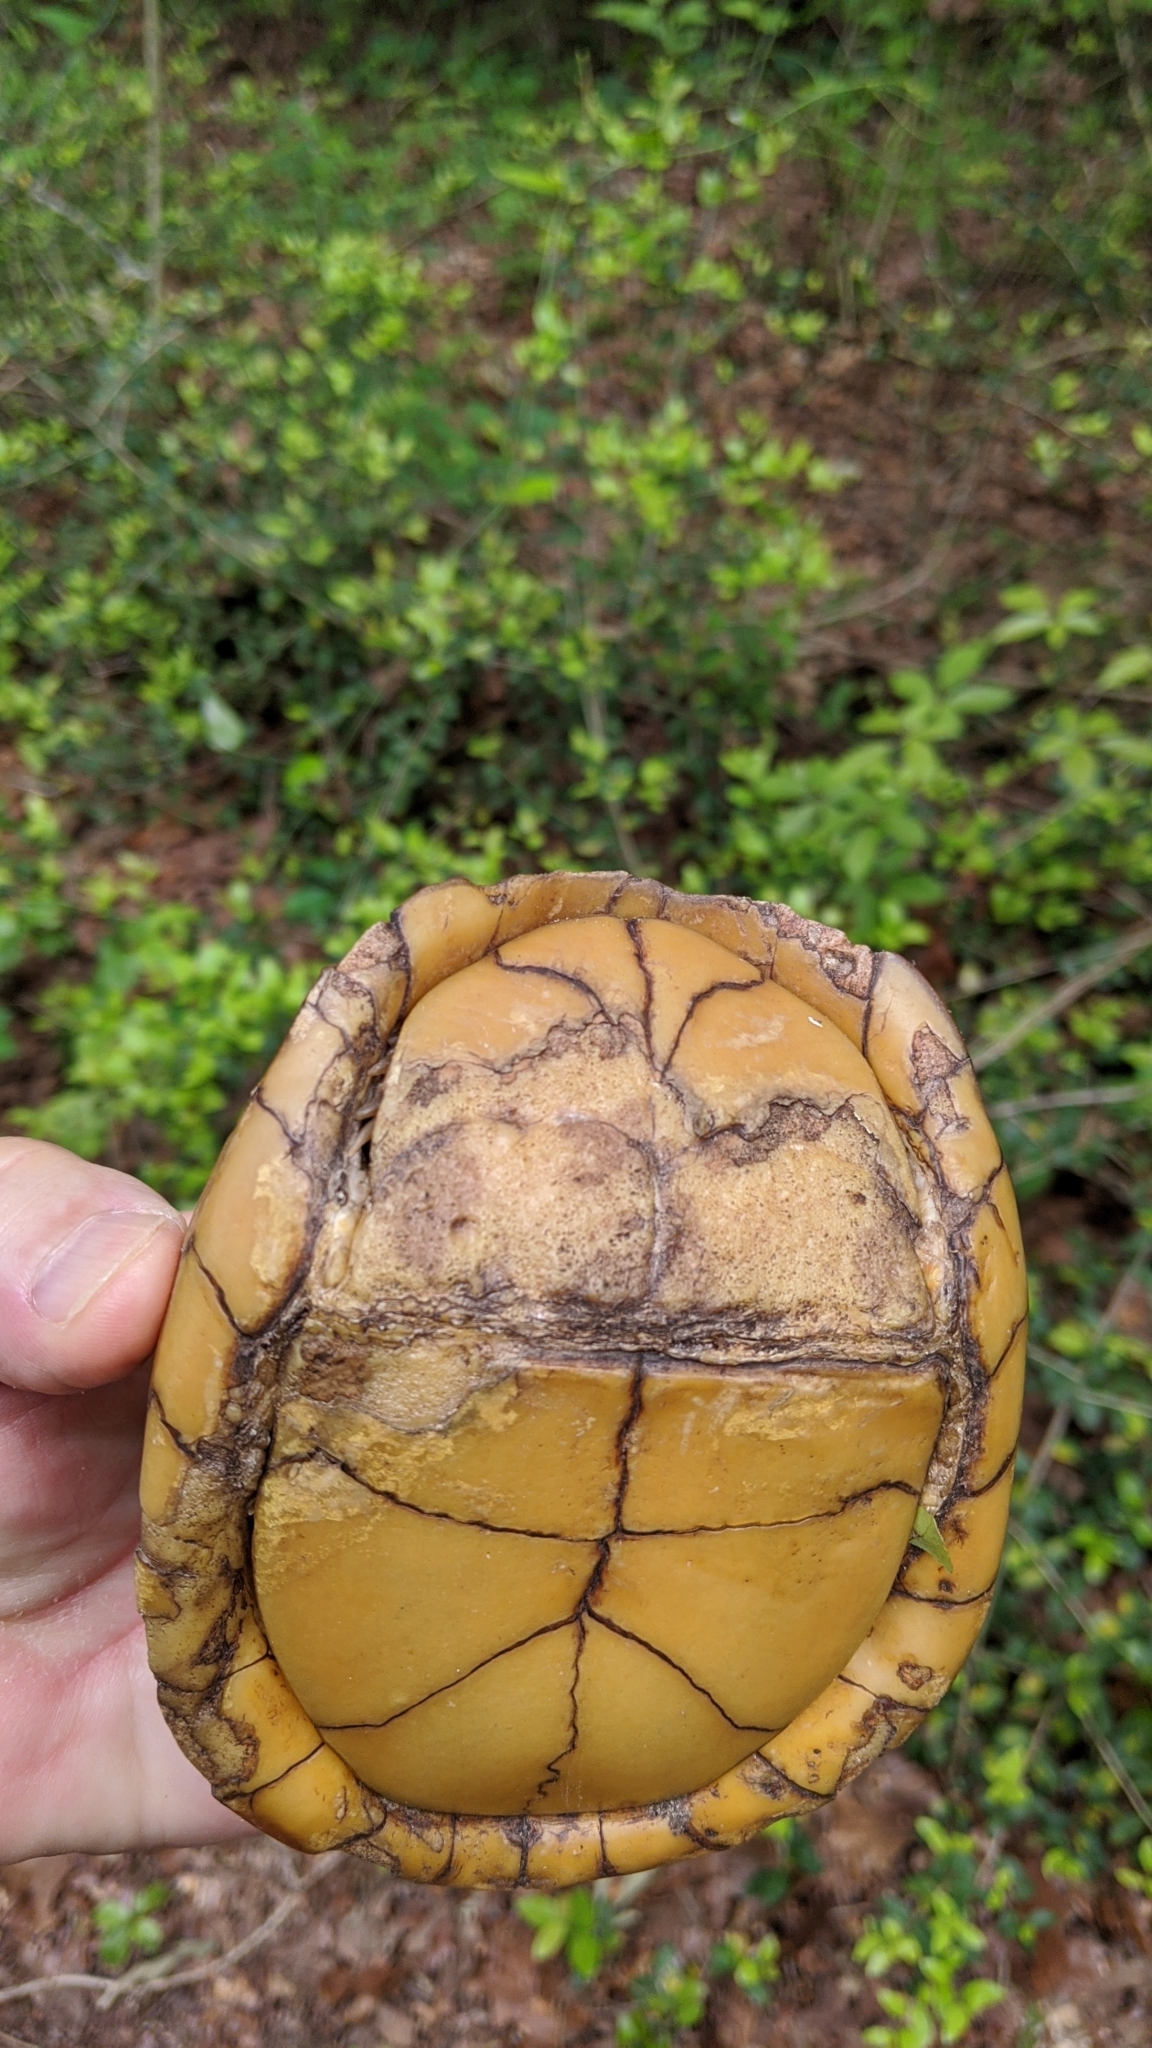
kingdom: Animalia
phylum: Chordata
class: Testudines
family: Emydidae
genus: Terrapene
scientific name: Terrapene carolina
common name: Common box turtle
